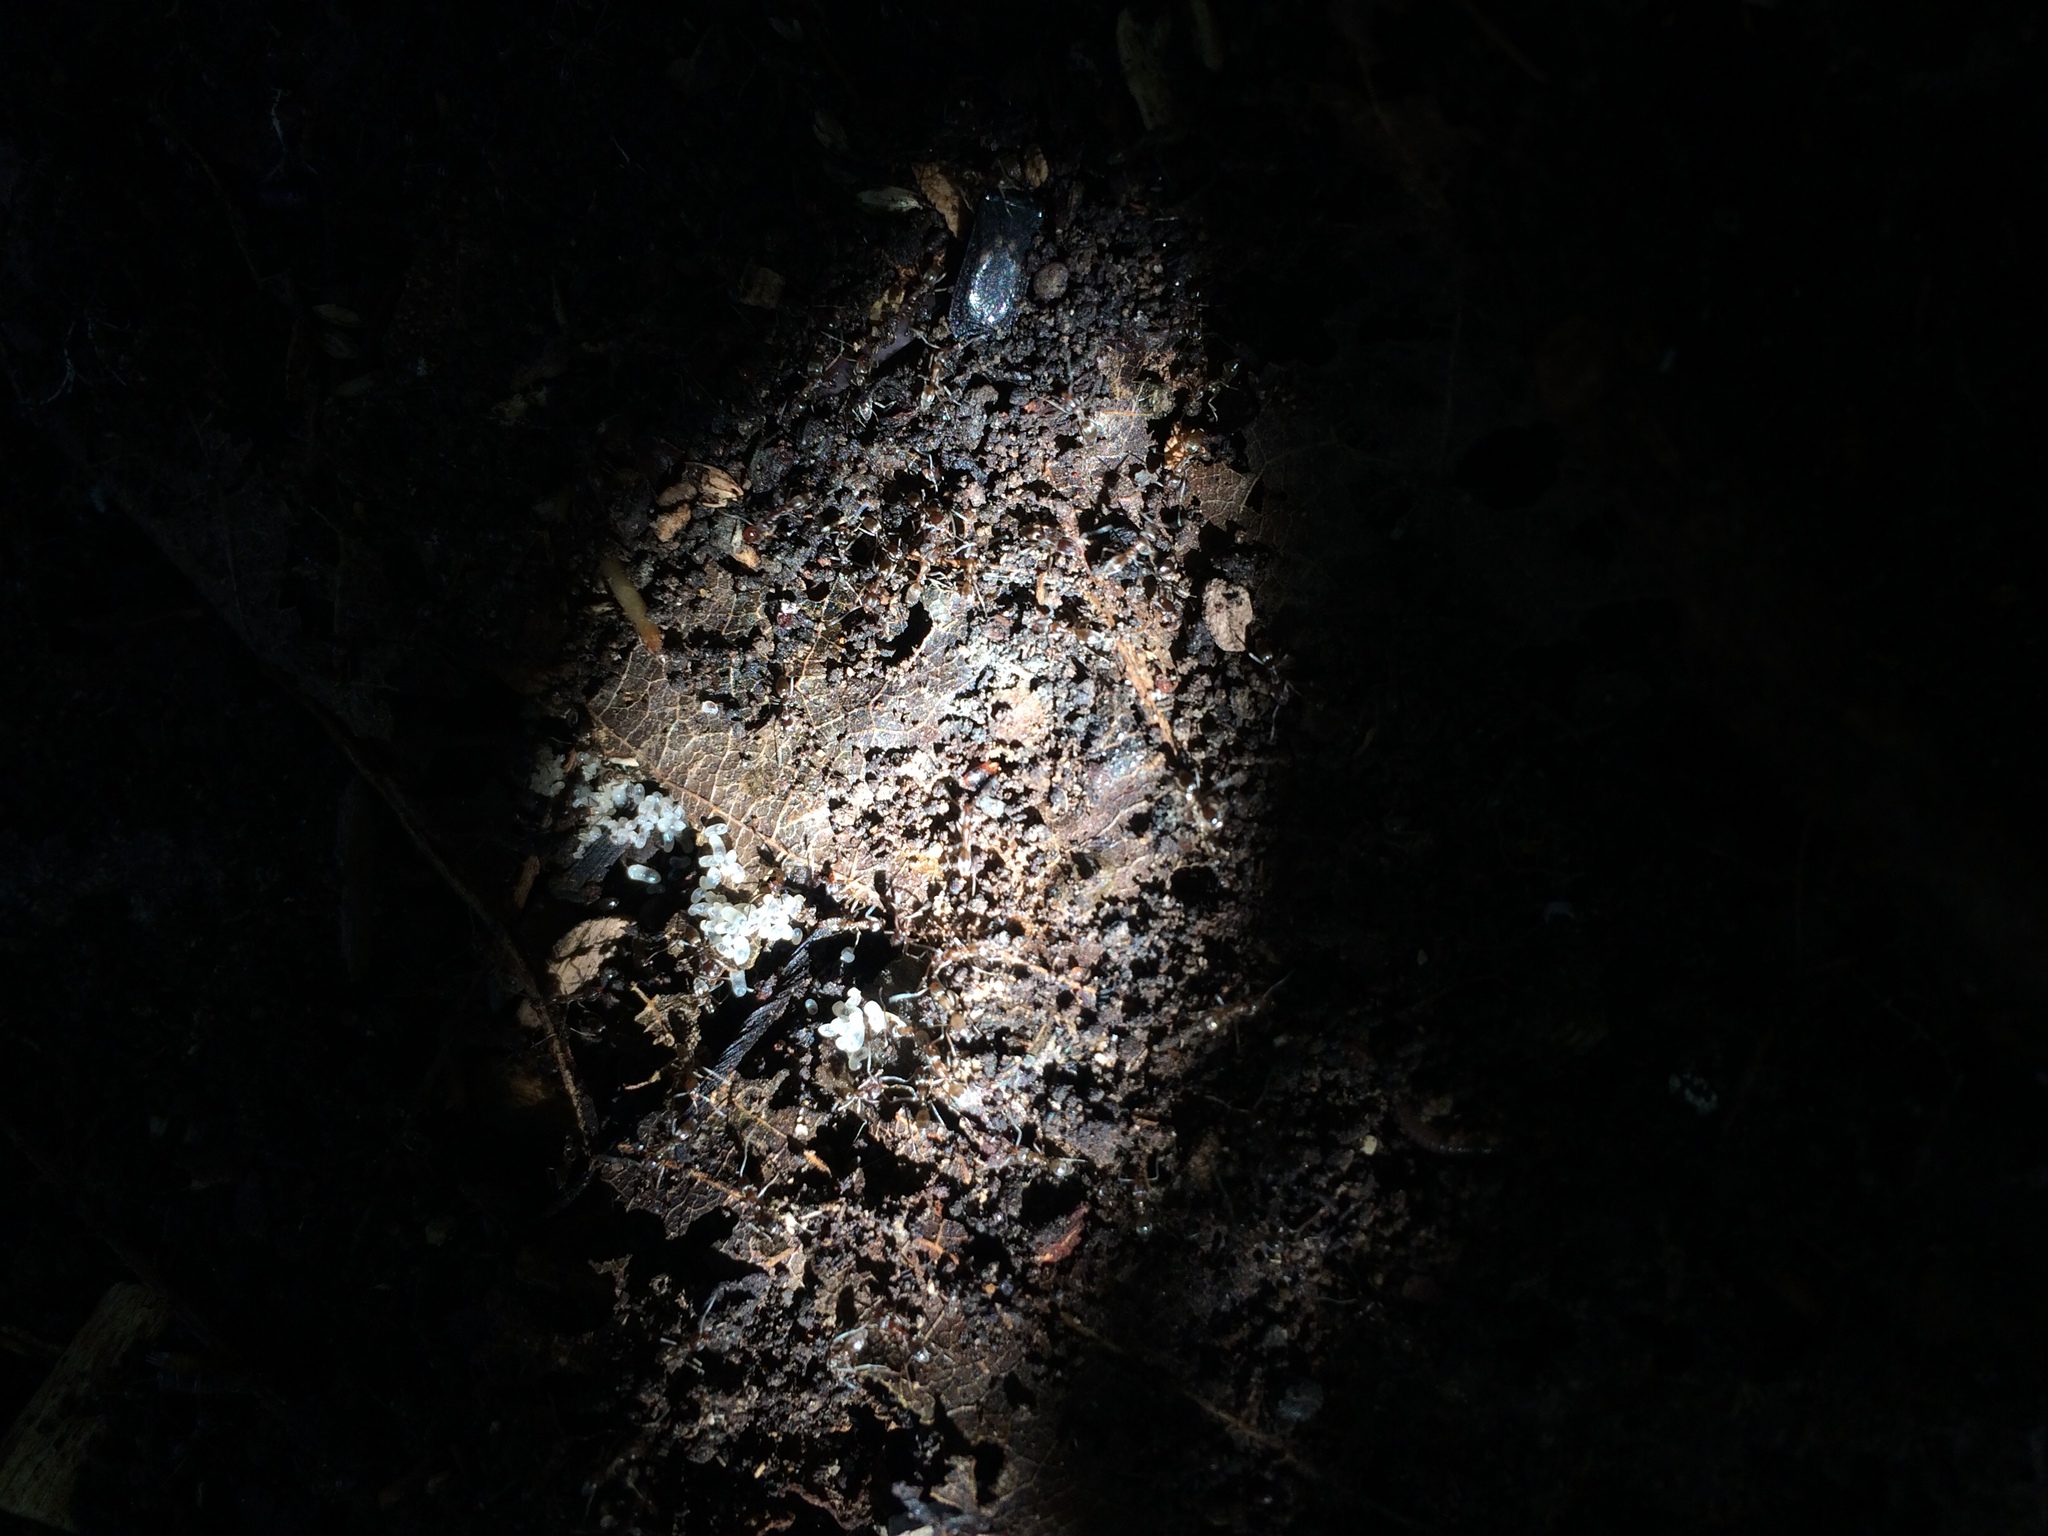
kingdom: Animalia
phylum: Arthropoda
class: Insecta
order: Hymenoptera
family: Formicidae
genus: Linepithema
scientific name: Linepithema humile
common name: Argentine ant
